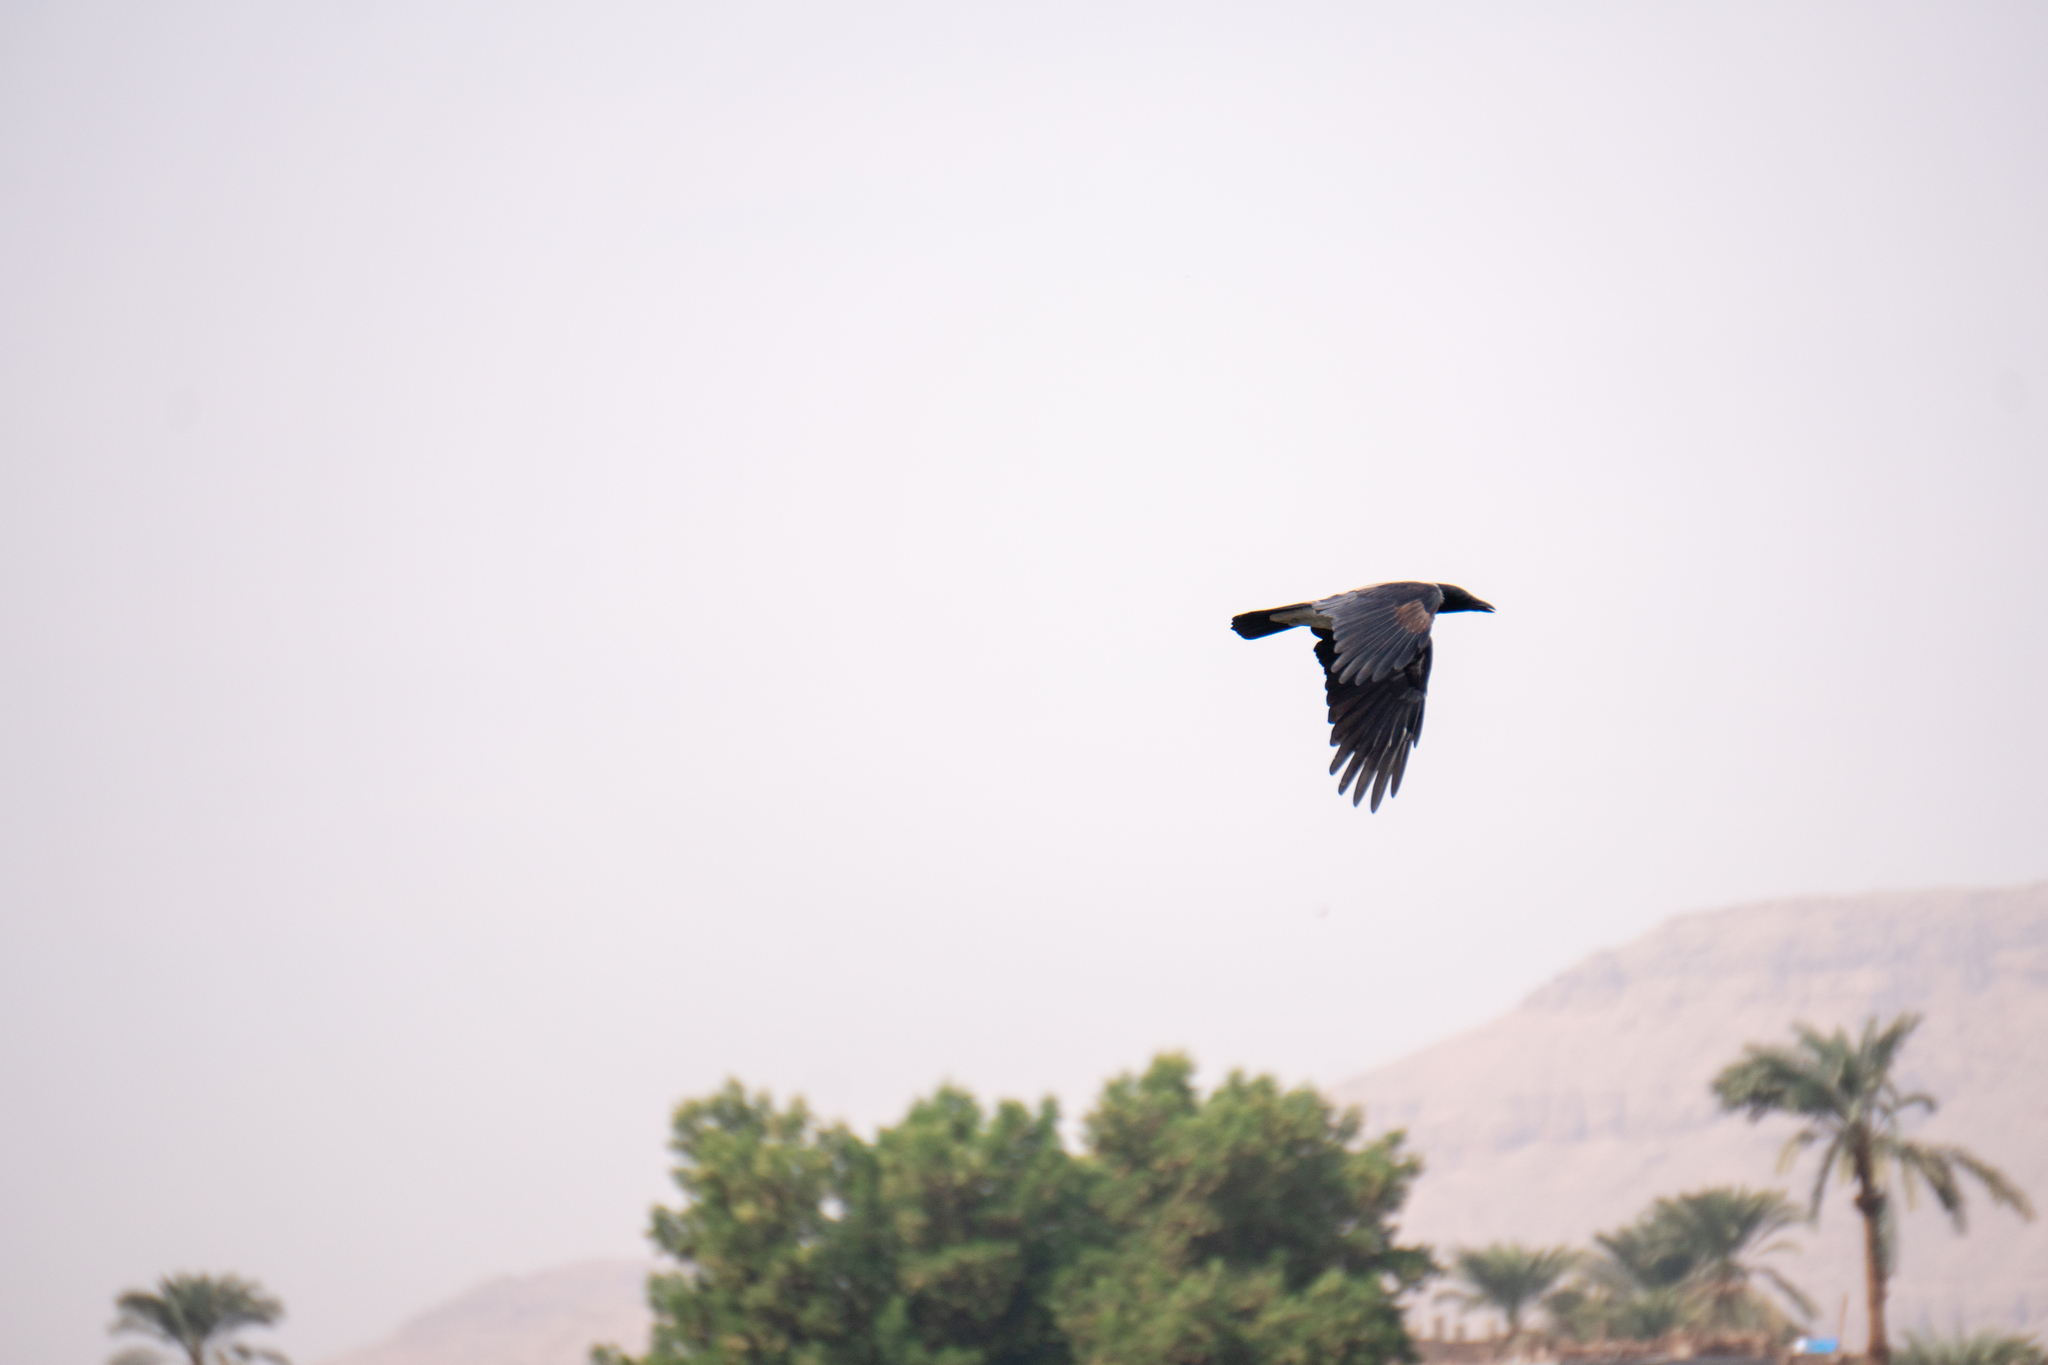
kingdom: Animalia
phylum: Chordata
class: Aves
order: Passeriformes
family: Corvidae
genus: Corvus
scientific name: Corvus cornix
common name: Hooded crow
